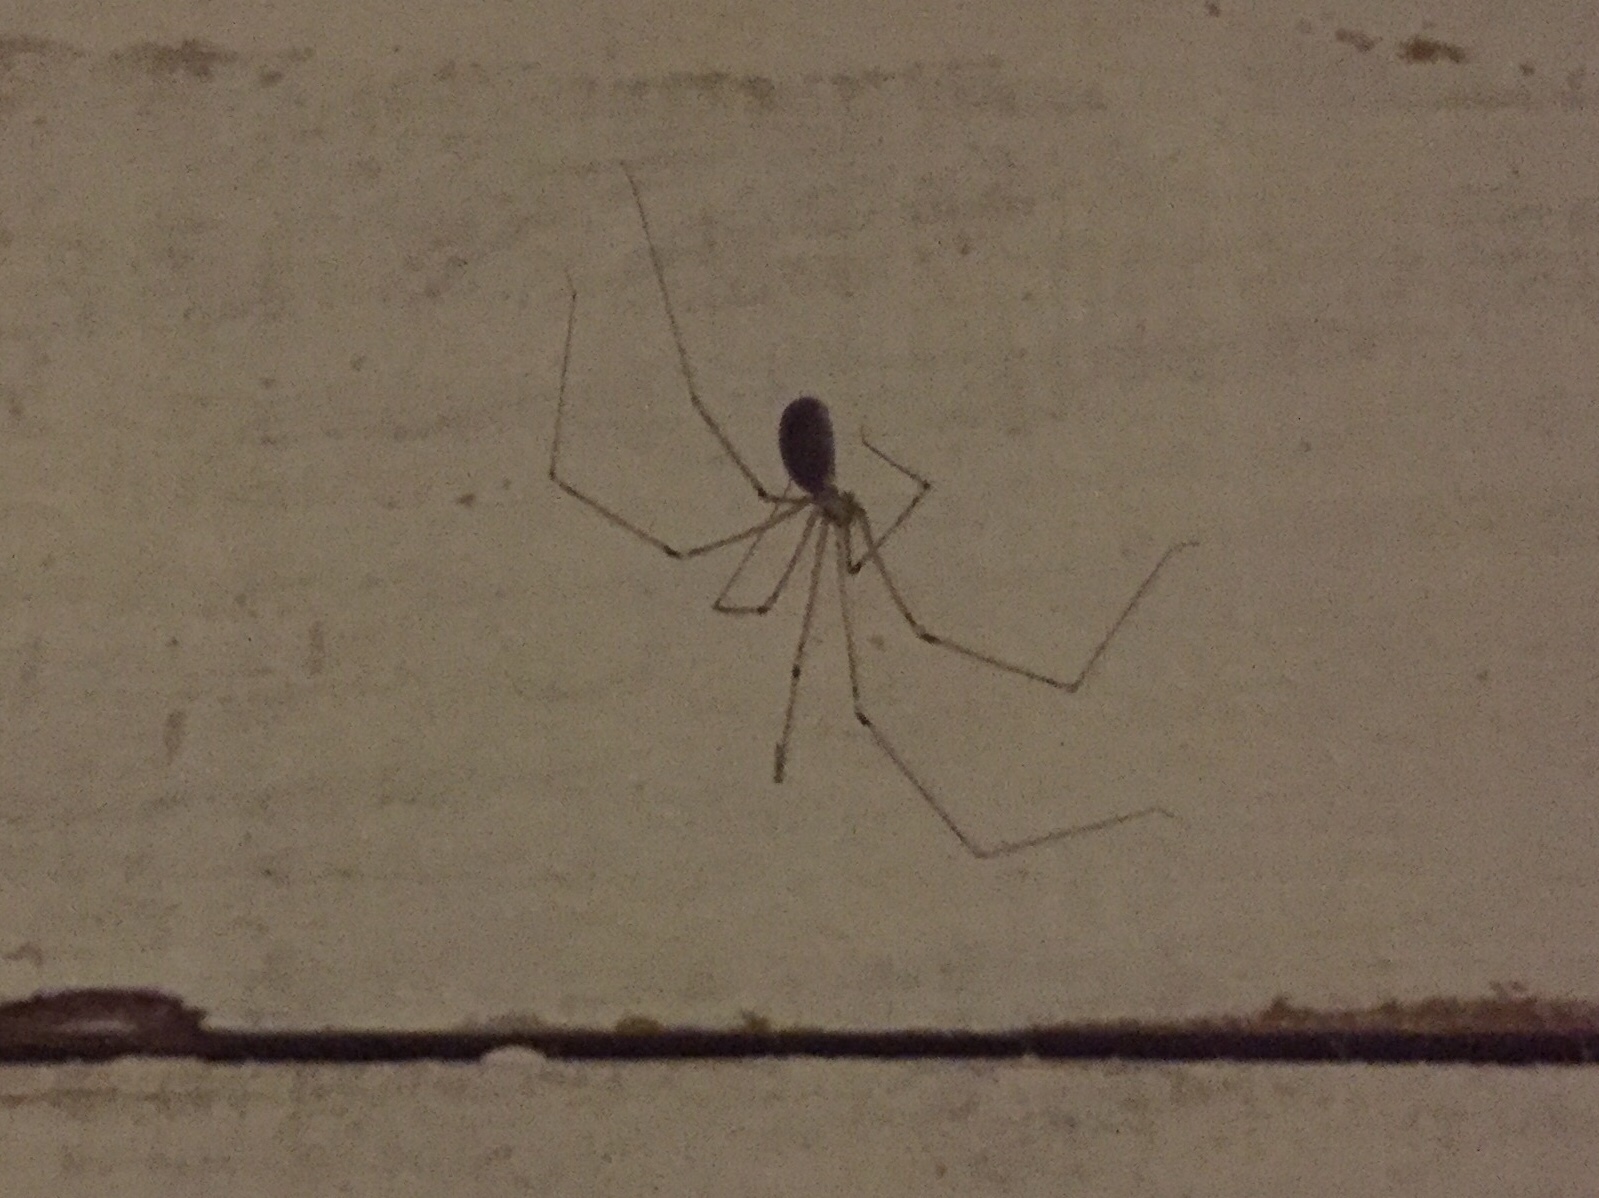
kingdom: Animalia
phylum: Arthropoda
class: Arachnida
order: Araneae
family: Pholcidae
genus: Pholcus
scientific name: Pholcus phalangioides
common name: Longbodied cellar spider
